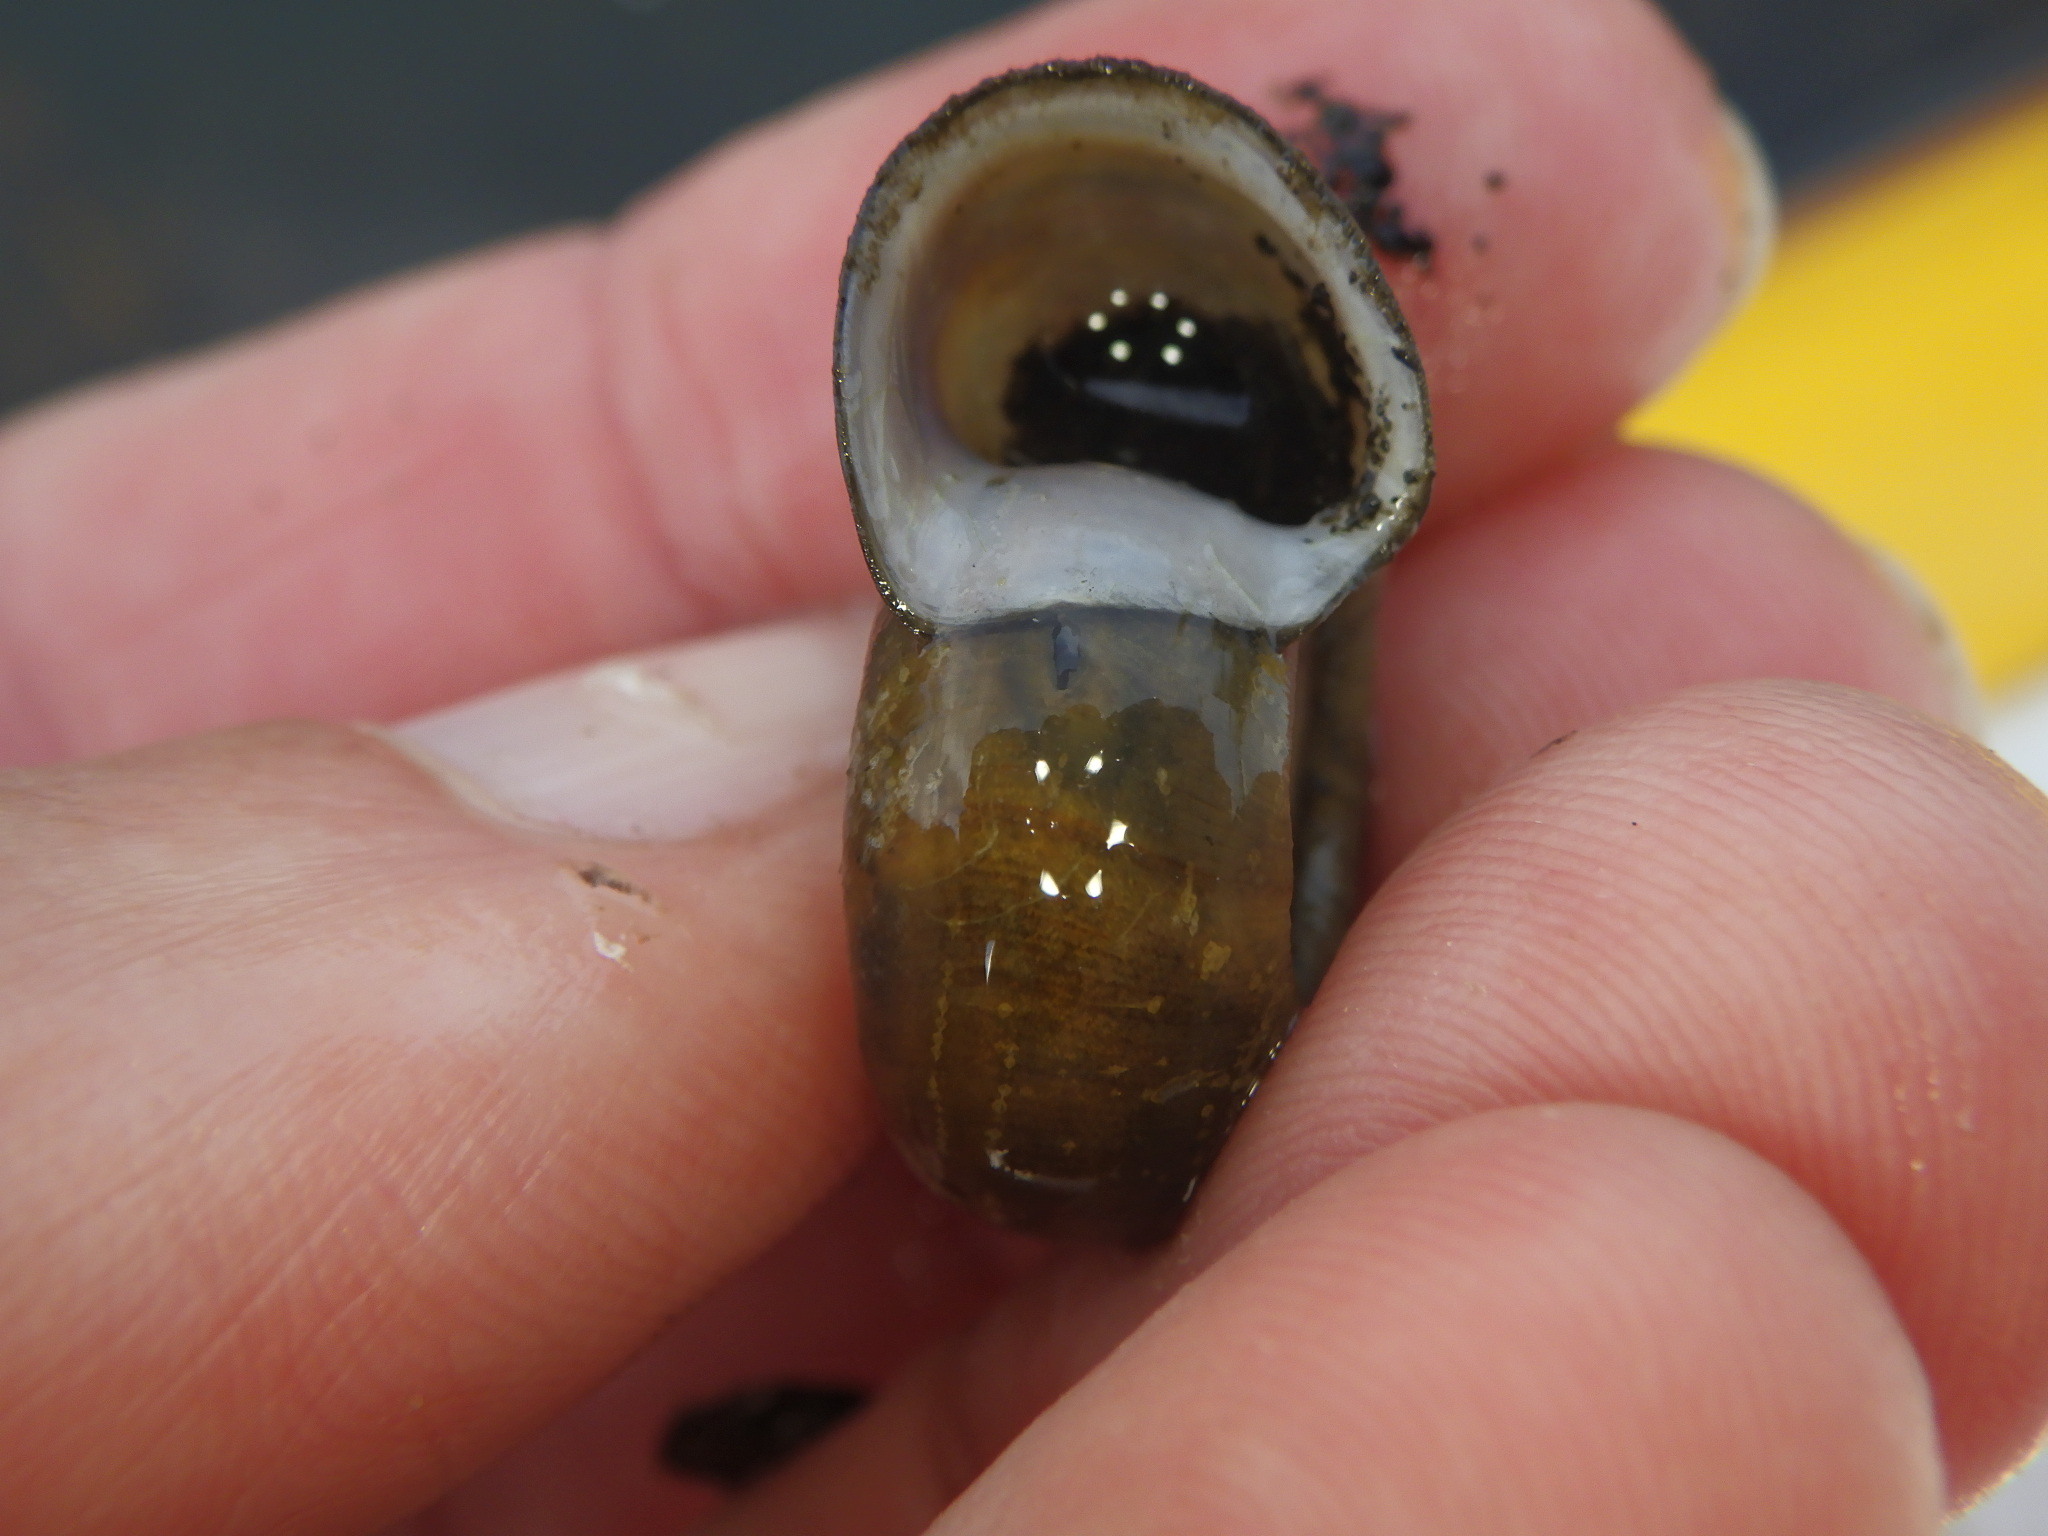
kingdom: Animalia
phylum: Mollusca
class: Gastropoda
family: Planorbidae
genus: Planorbella
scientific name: Planorbella trivolvis
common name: Marsh rams-horn
